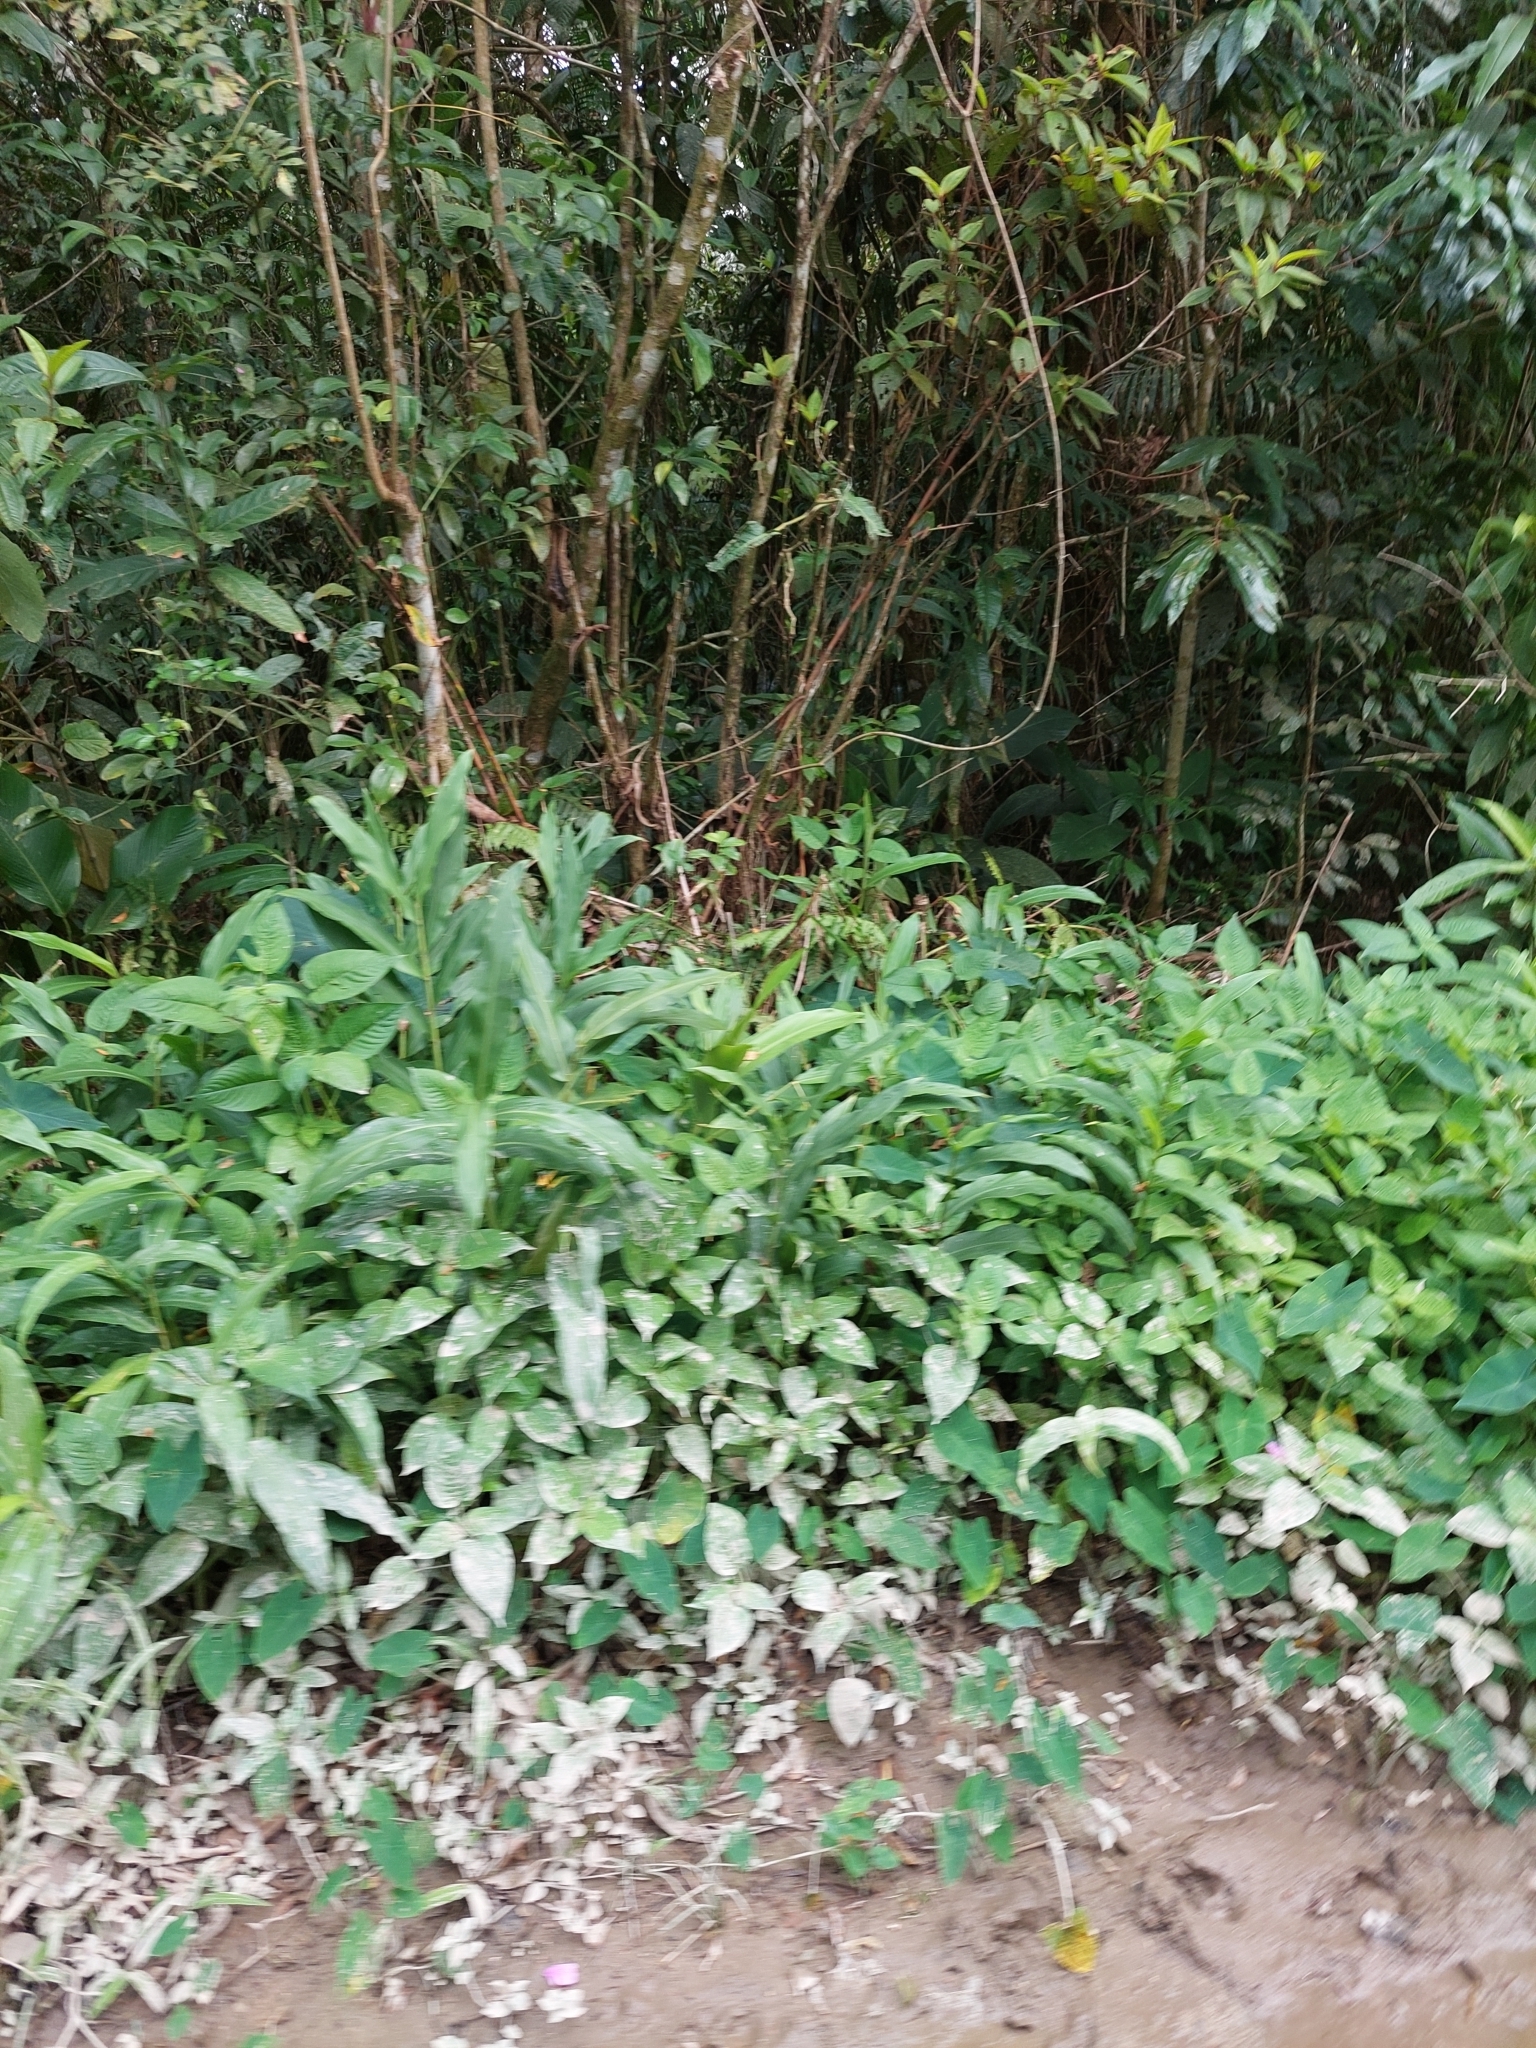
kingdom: Plantae
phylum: Tracheophyta
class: Liliopsida
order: Zingiberales
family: Zingiberaceae
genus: Hedychium
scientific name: Hedychium coronarium
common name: White garland-lily
